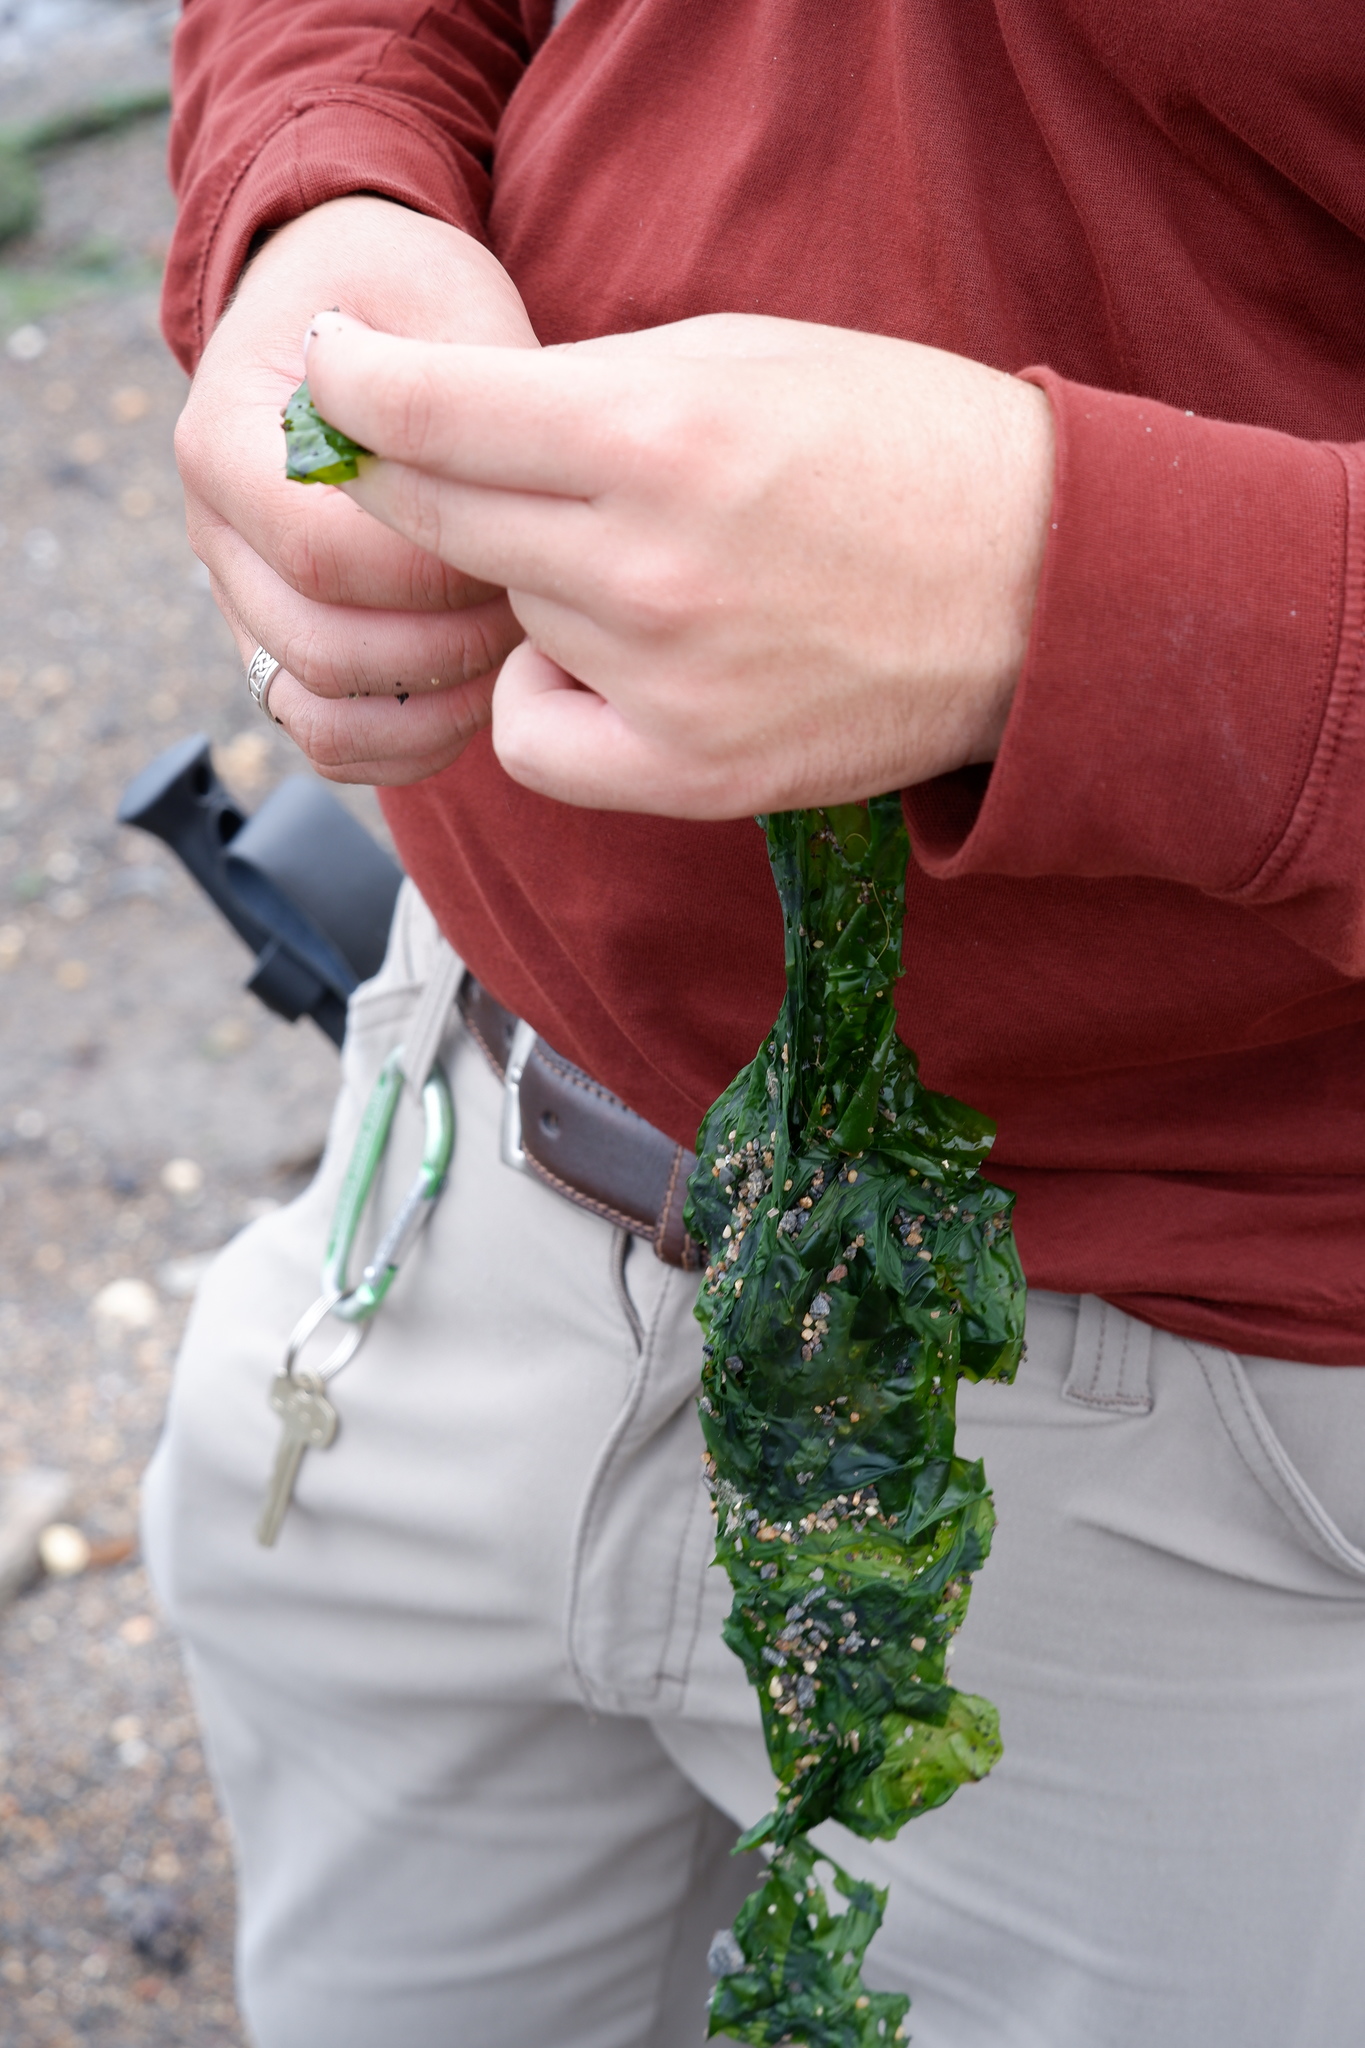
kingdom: Plantae
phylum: Chlorophyta
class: Ulvophyceae
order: Ulvales
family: Ulvaceae
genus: Ulva
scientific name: Ulva lactuca
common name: Sea lettuce
